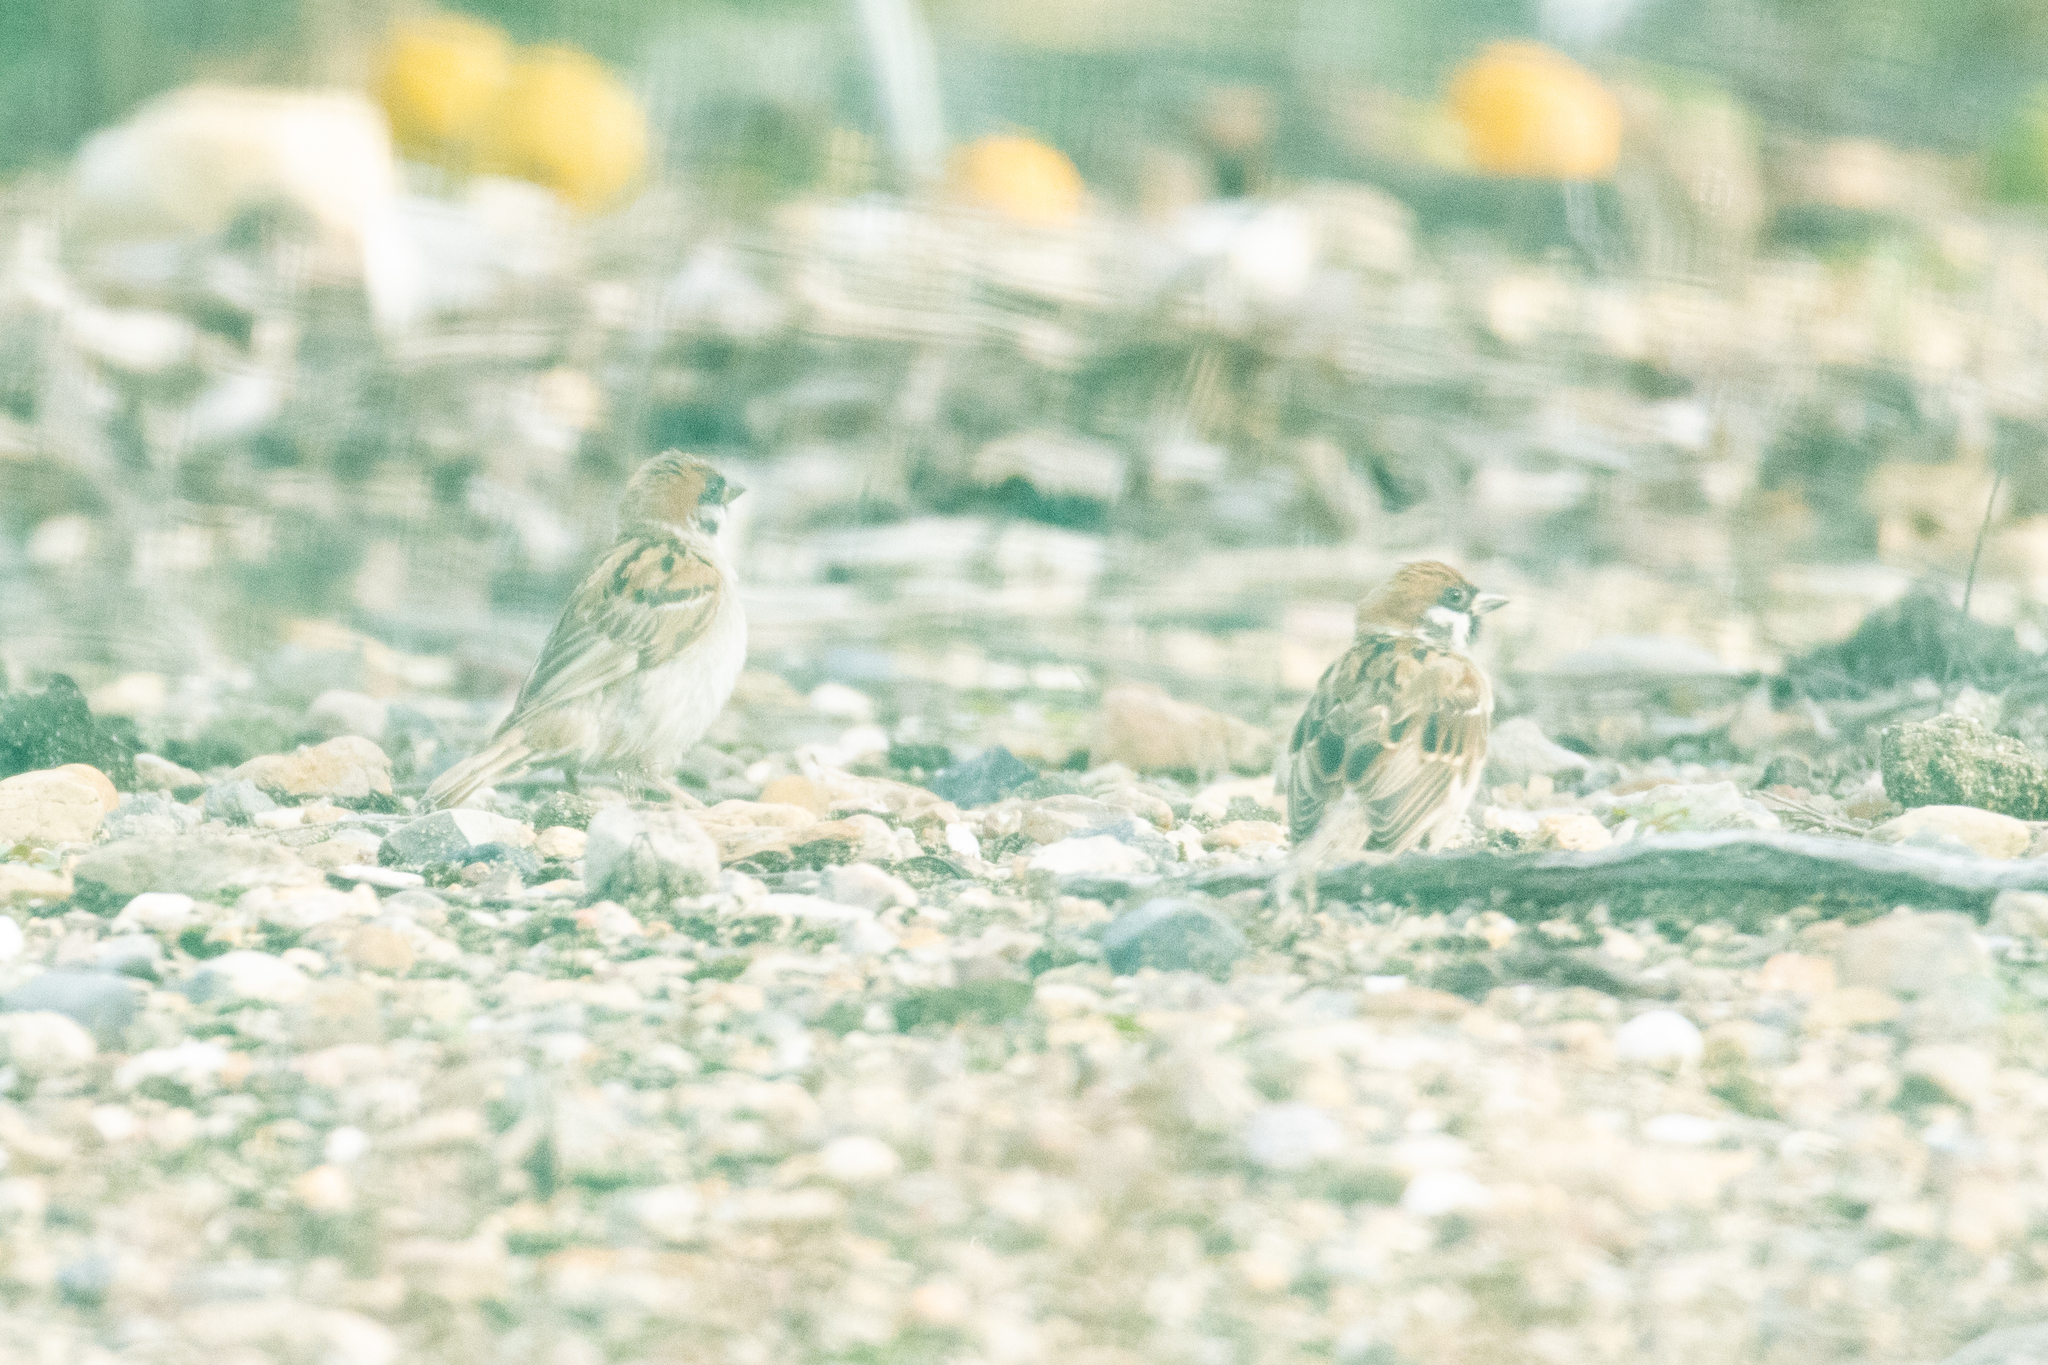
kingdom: Animalia
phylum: Chordata
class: Aves
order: Passeriformes
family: Passeridae
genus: Passer
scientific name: Passer montanus
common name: Eurasian tree sparrow
